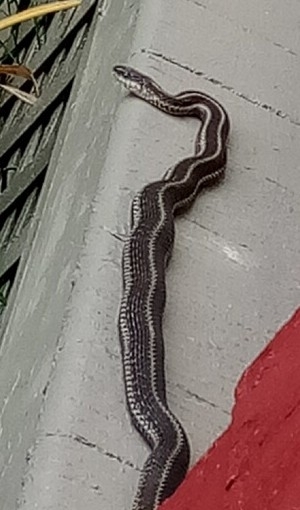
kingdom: Animalia
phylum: Chordata
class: Squamata
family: Colubridae
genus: Thamnophis
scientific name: Thamnophis sirtalis
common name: Common garter snake
